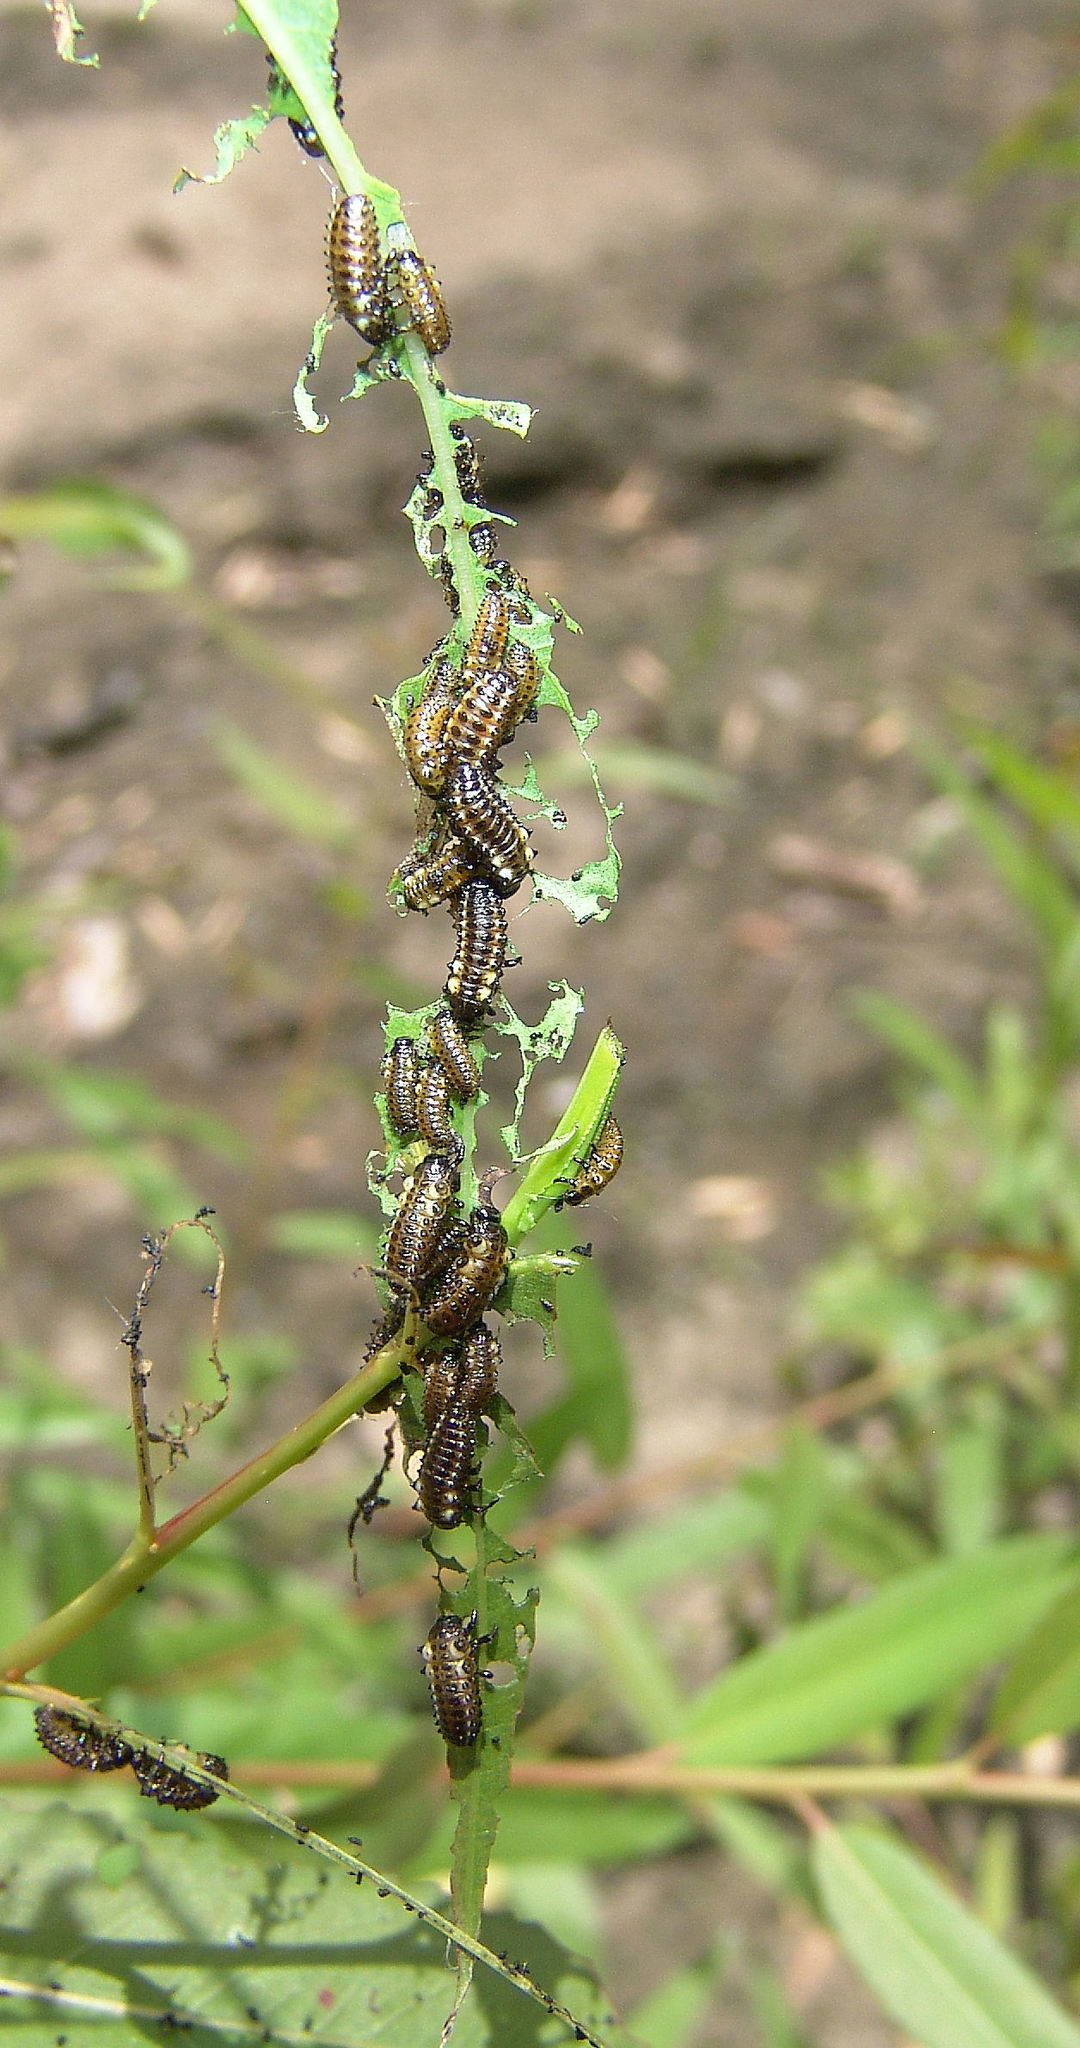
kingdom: Animalia
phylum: Arthropoda
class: Insecta
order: Coleoptera
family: Chrysomelidae
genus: Aethiopocassis
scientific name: Aethiopocassis scripta
